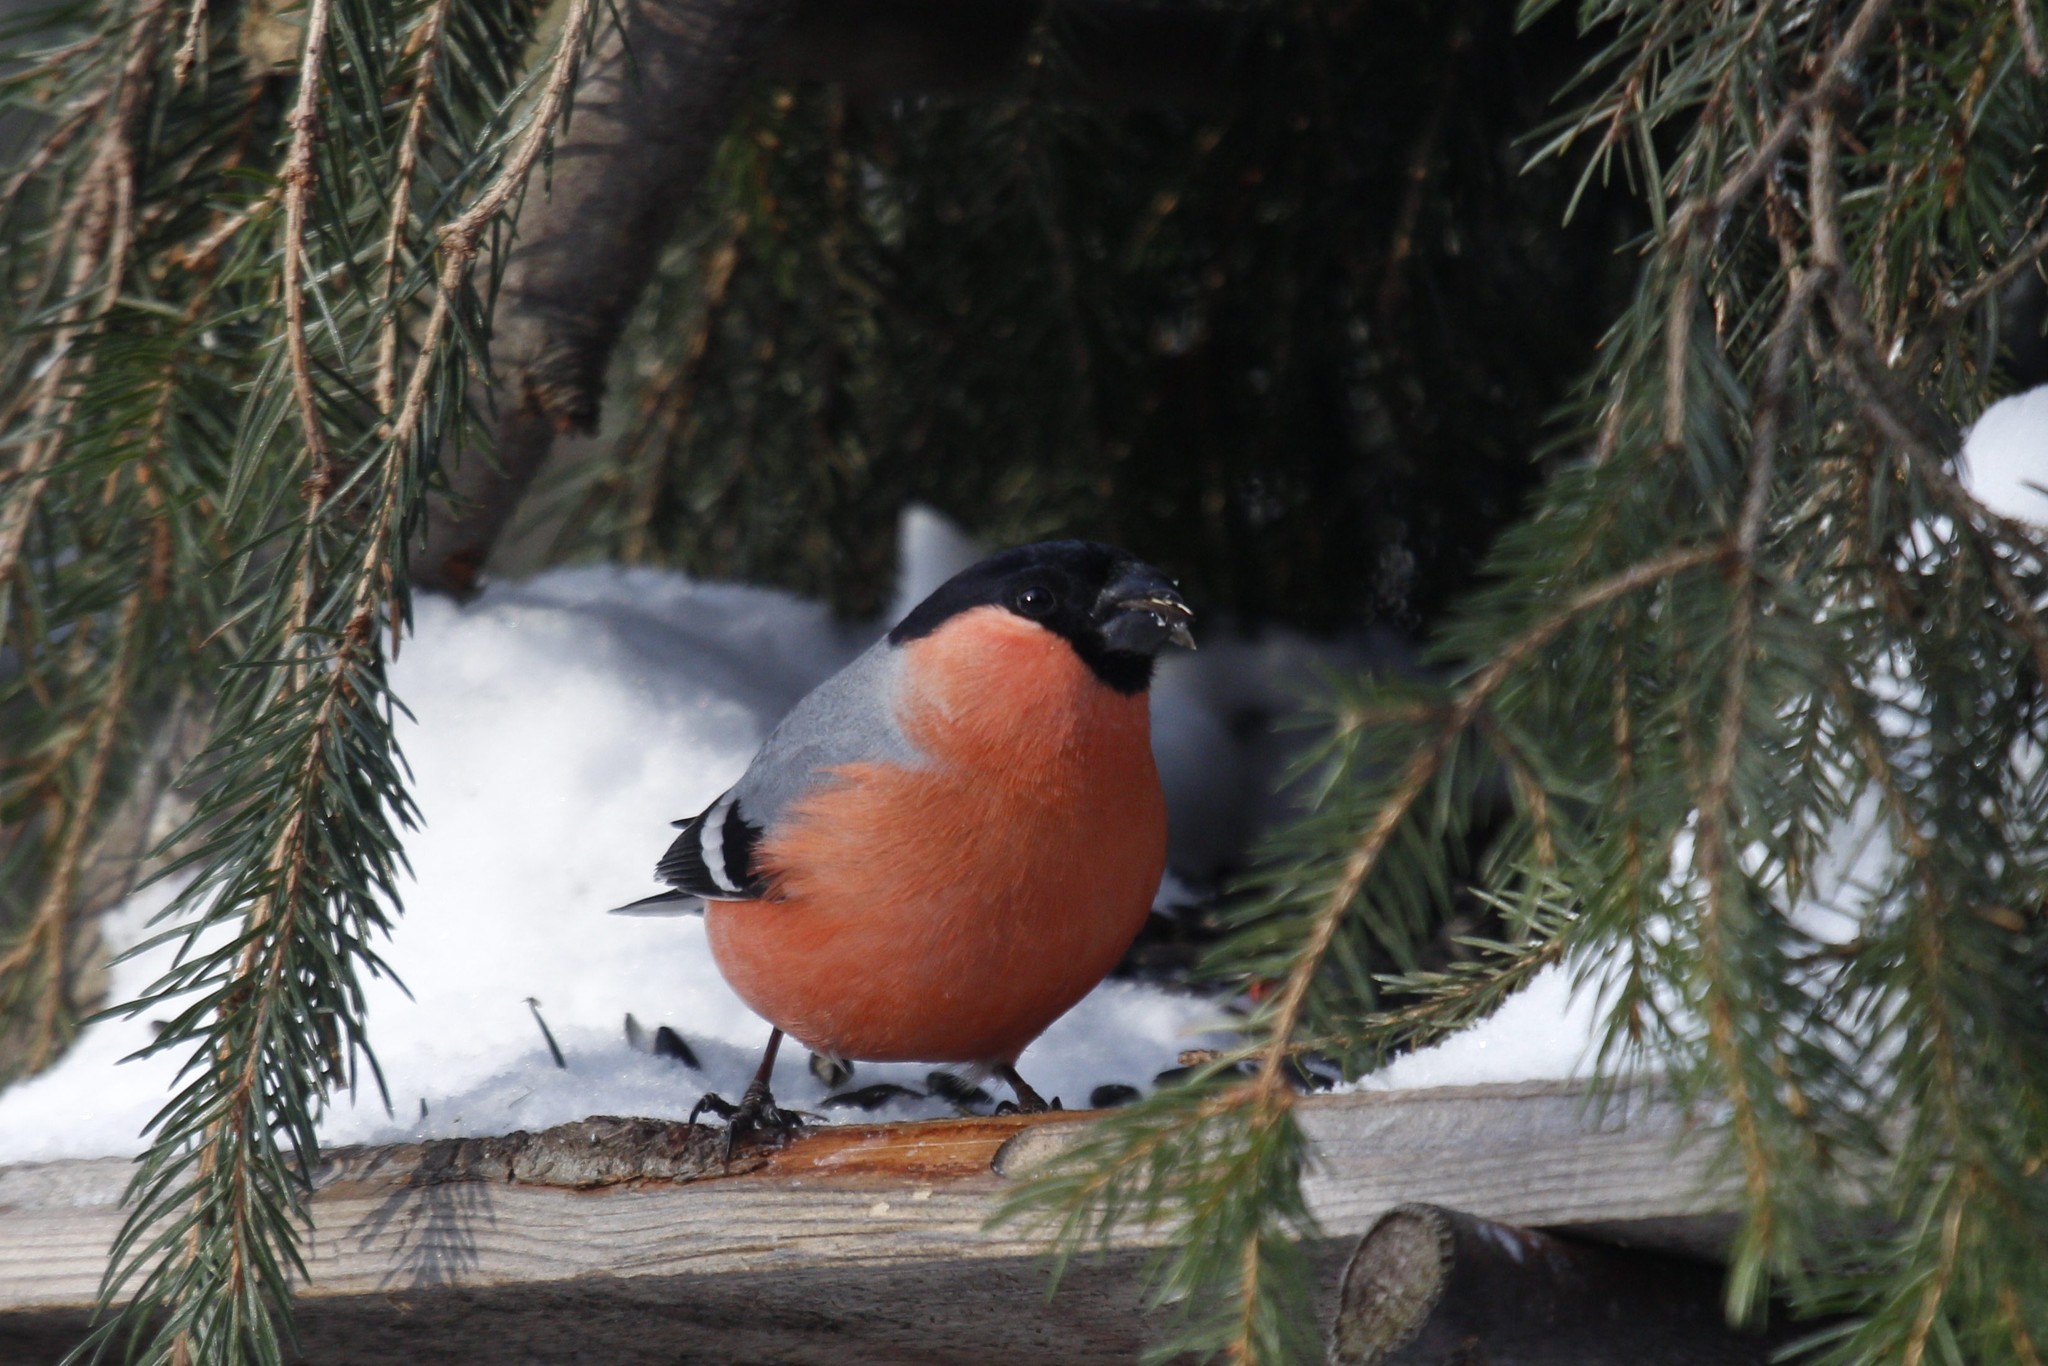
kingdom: Animalia
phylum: Chordata
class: Aves
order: Passeriformes
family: Fringillidae
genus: Pyrrhula
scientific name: Pyrrhula pyrrhula
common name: Eurasian bullfinch
